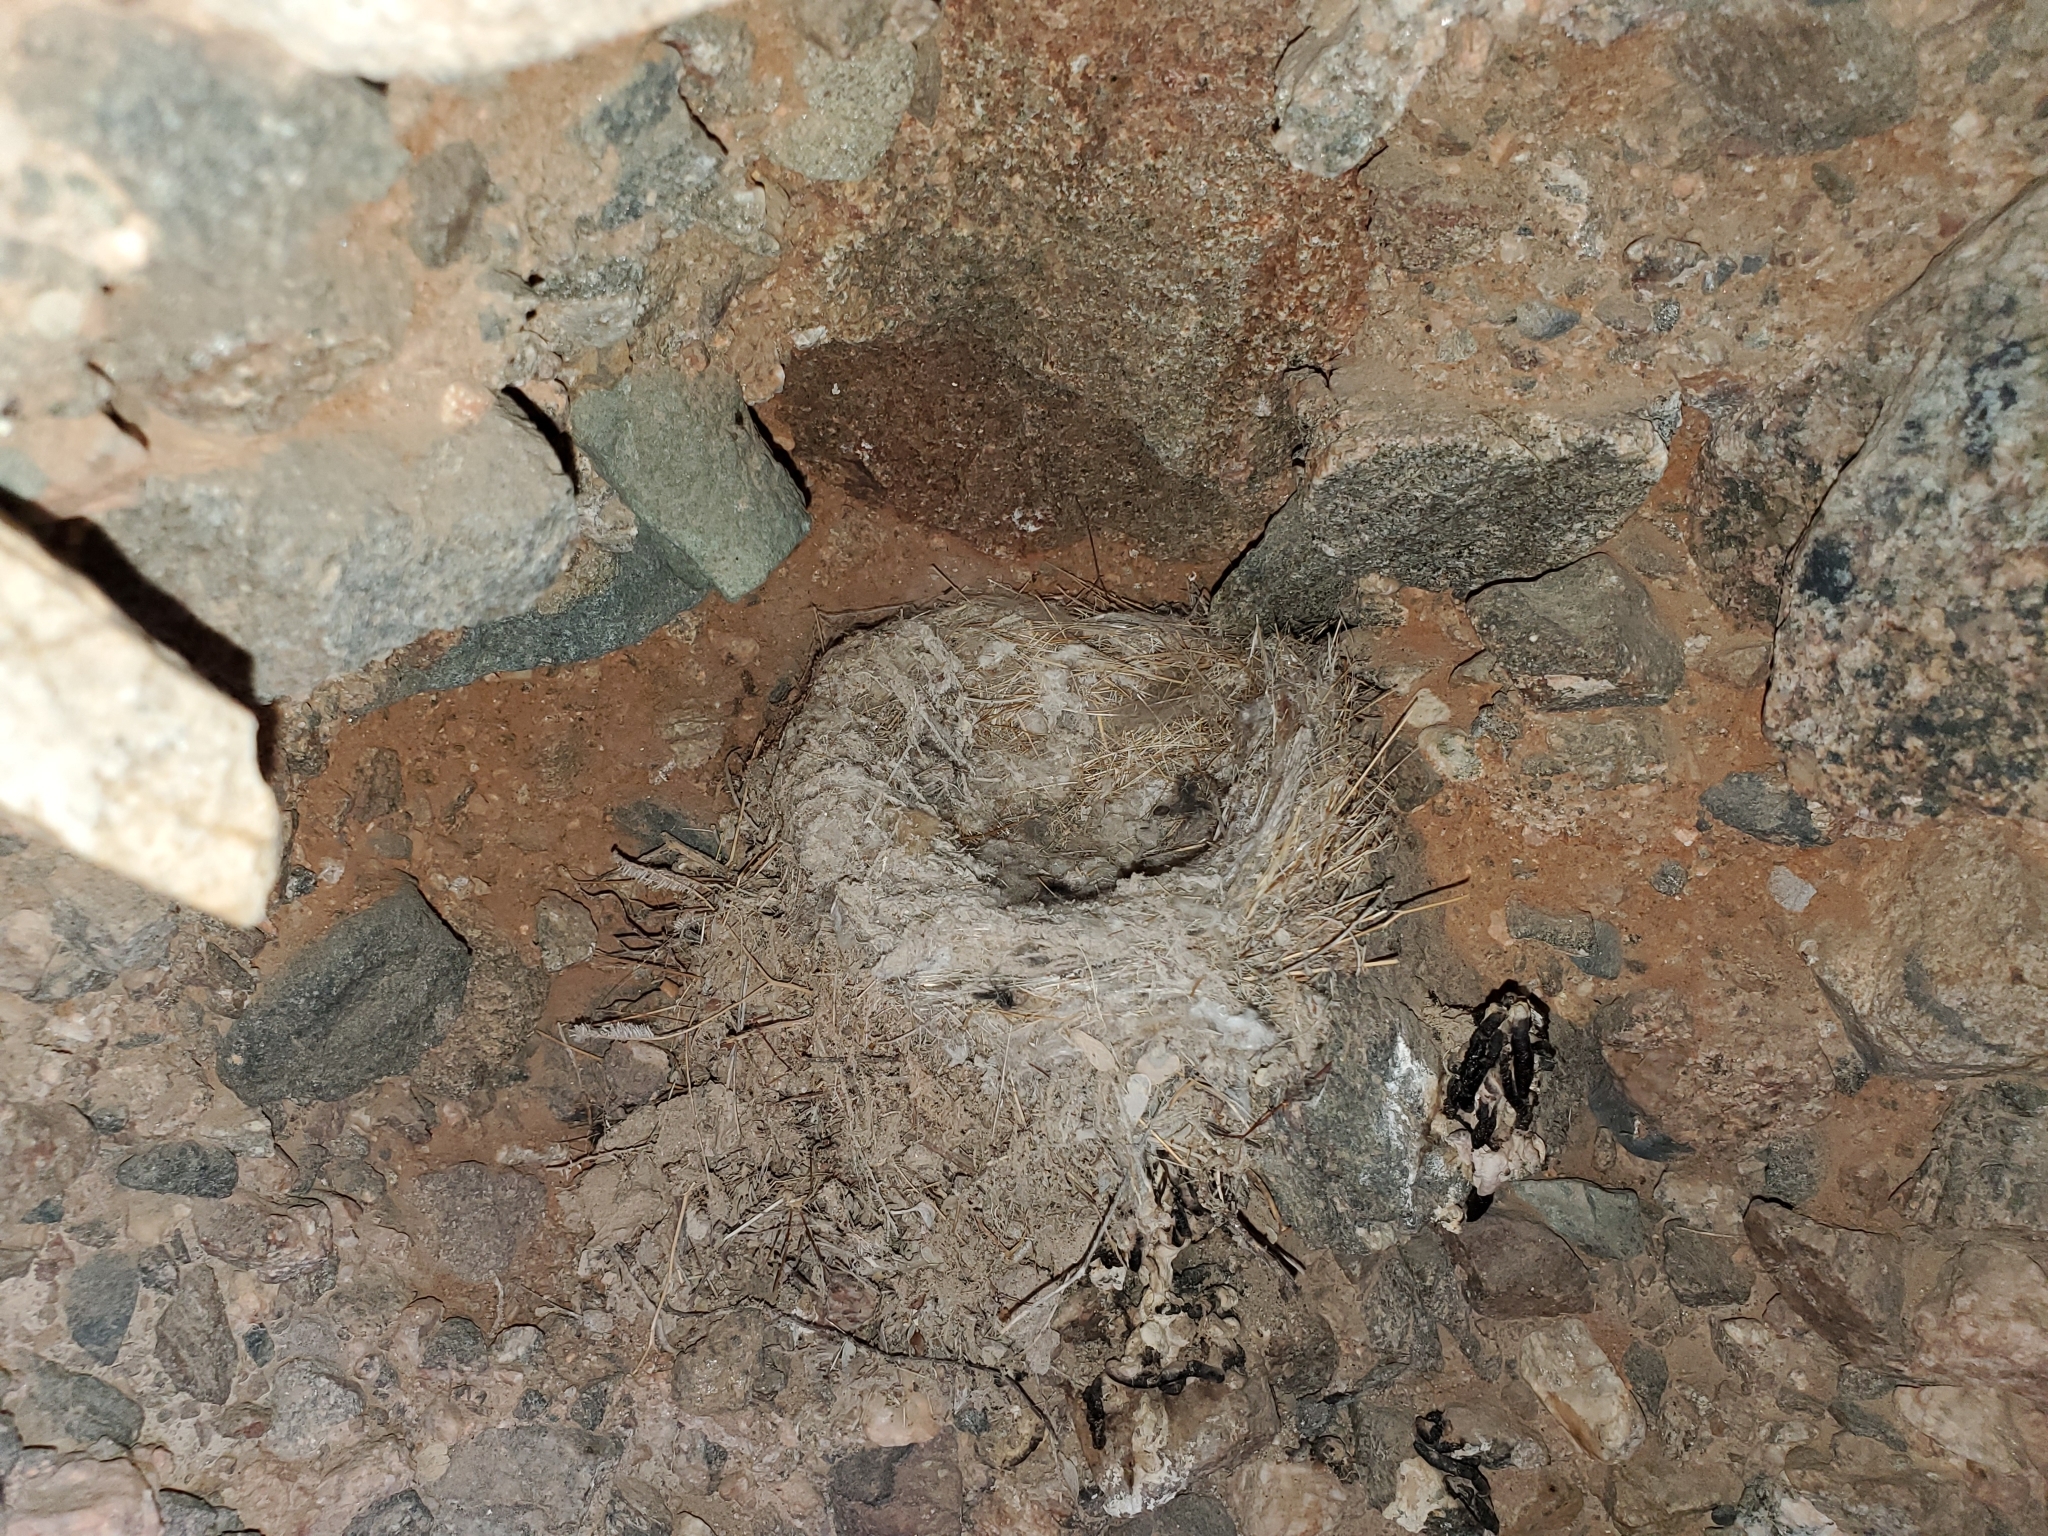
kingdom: Animalia
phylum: Chordata
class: Aves
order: Passeriformes
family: Tyrannidae
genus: Sayornis
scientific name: Sayornis saya
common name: Say's phoebe
